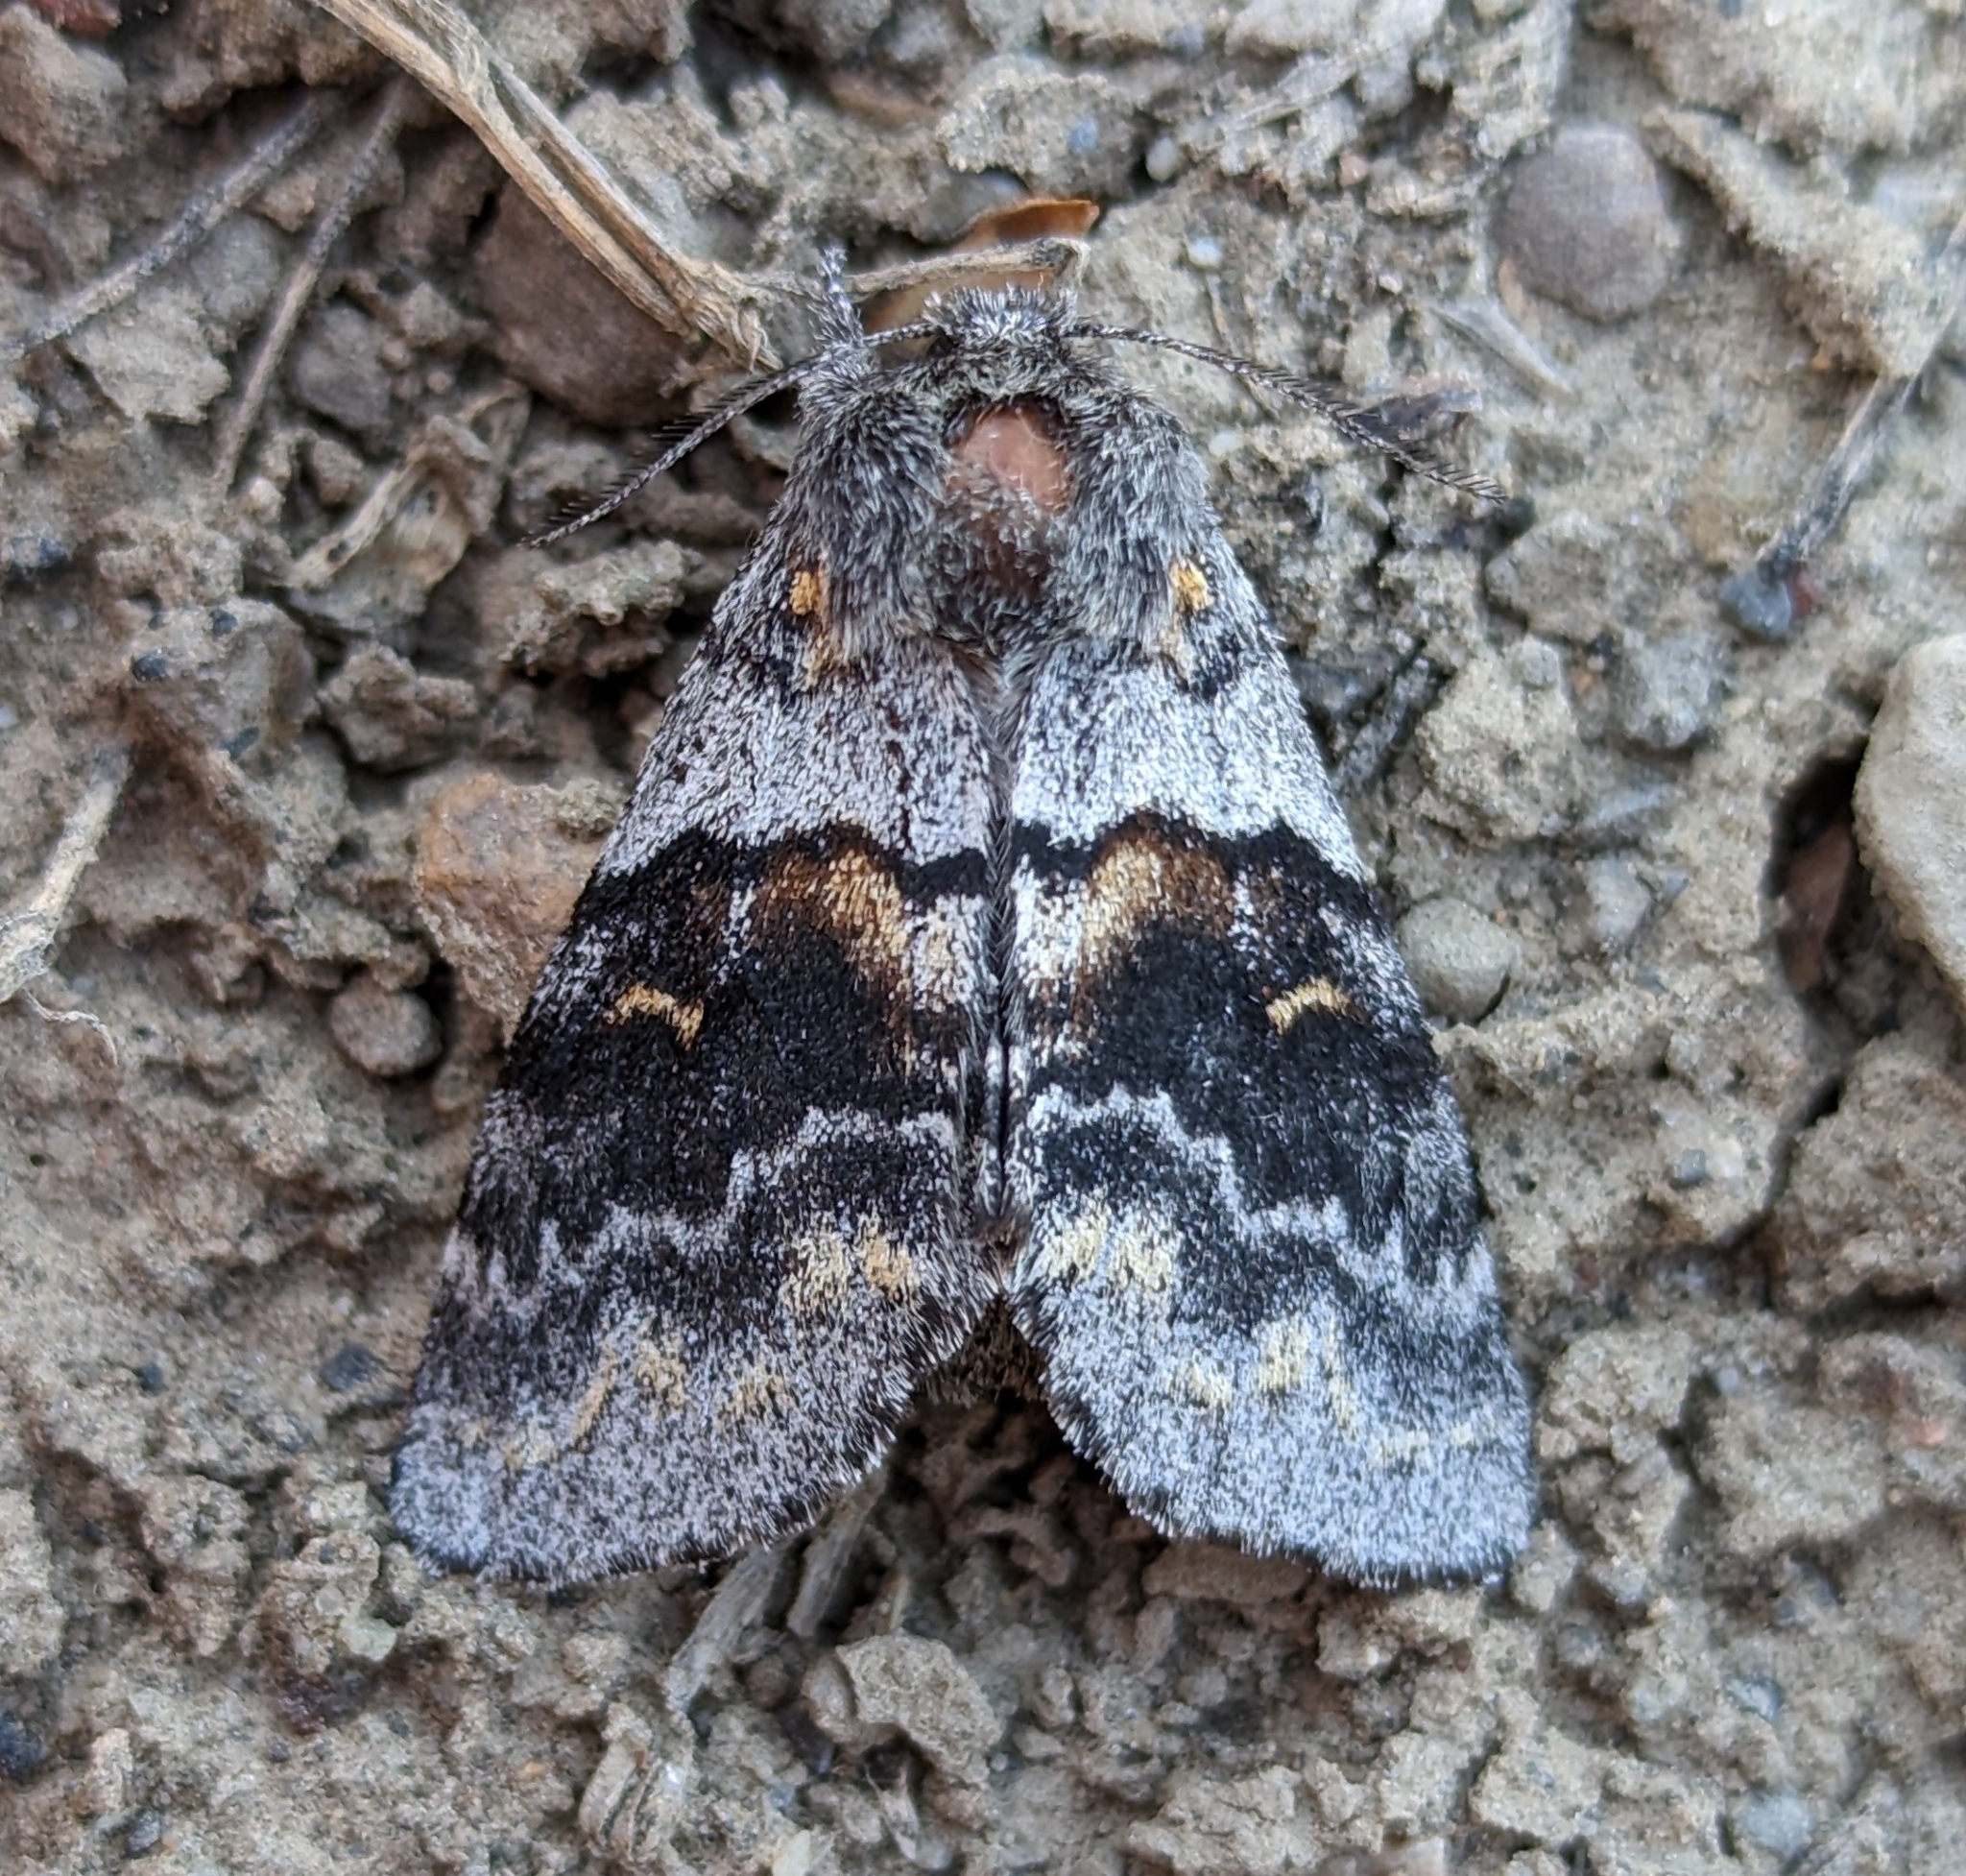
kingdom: Animalia
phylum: Arthropoda
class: Insecta
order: Lepidoptera
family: Notodontidae
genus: Gluphisia
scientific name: Gluphisia avimacula
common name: Four-spotted gluphisia moth
